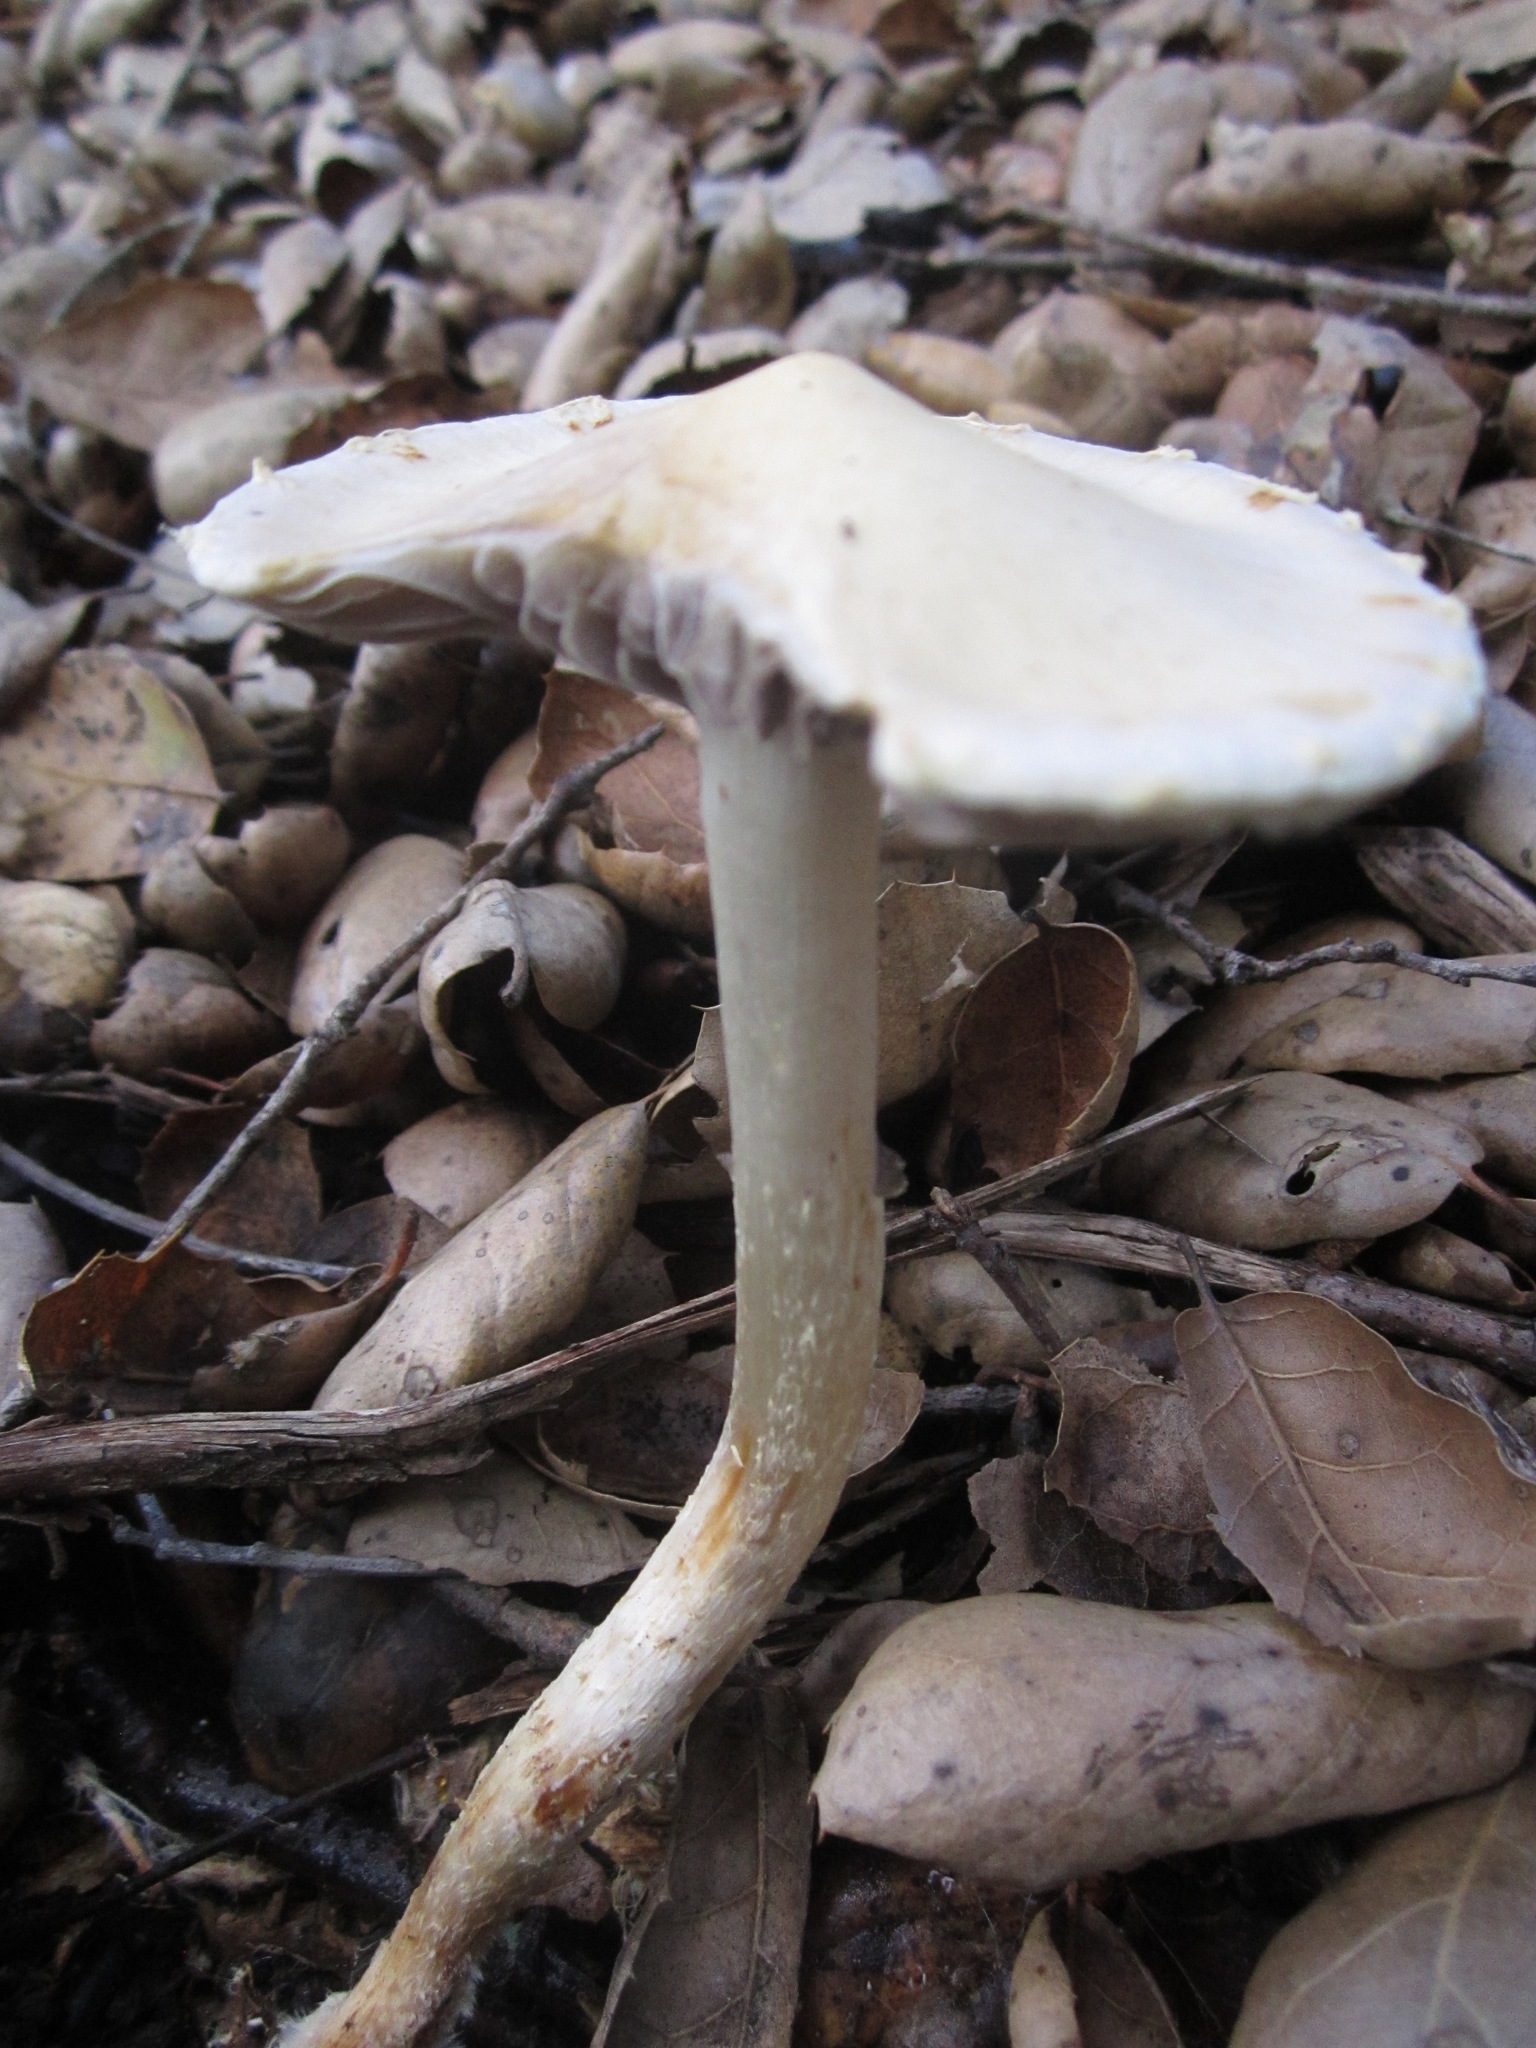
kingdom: Fungi
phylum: Basidiomycota
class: Agaricomycetes
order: Agaricales
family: Strophariaceae
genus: Leratiomyces
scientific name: Leratiomyces percevalii
